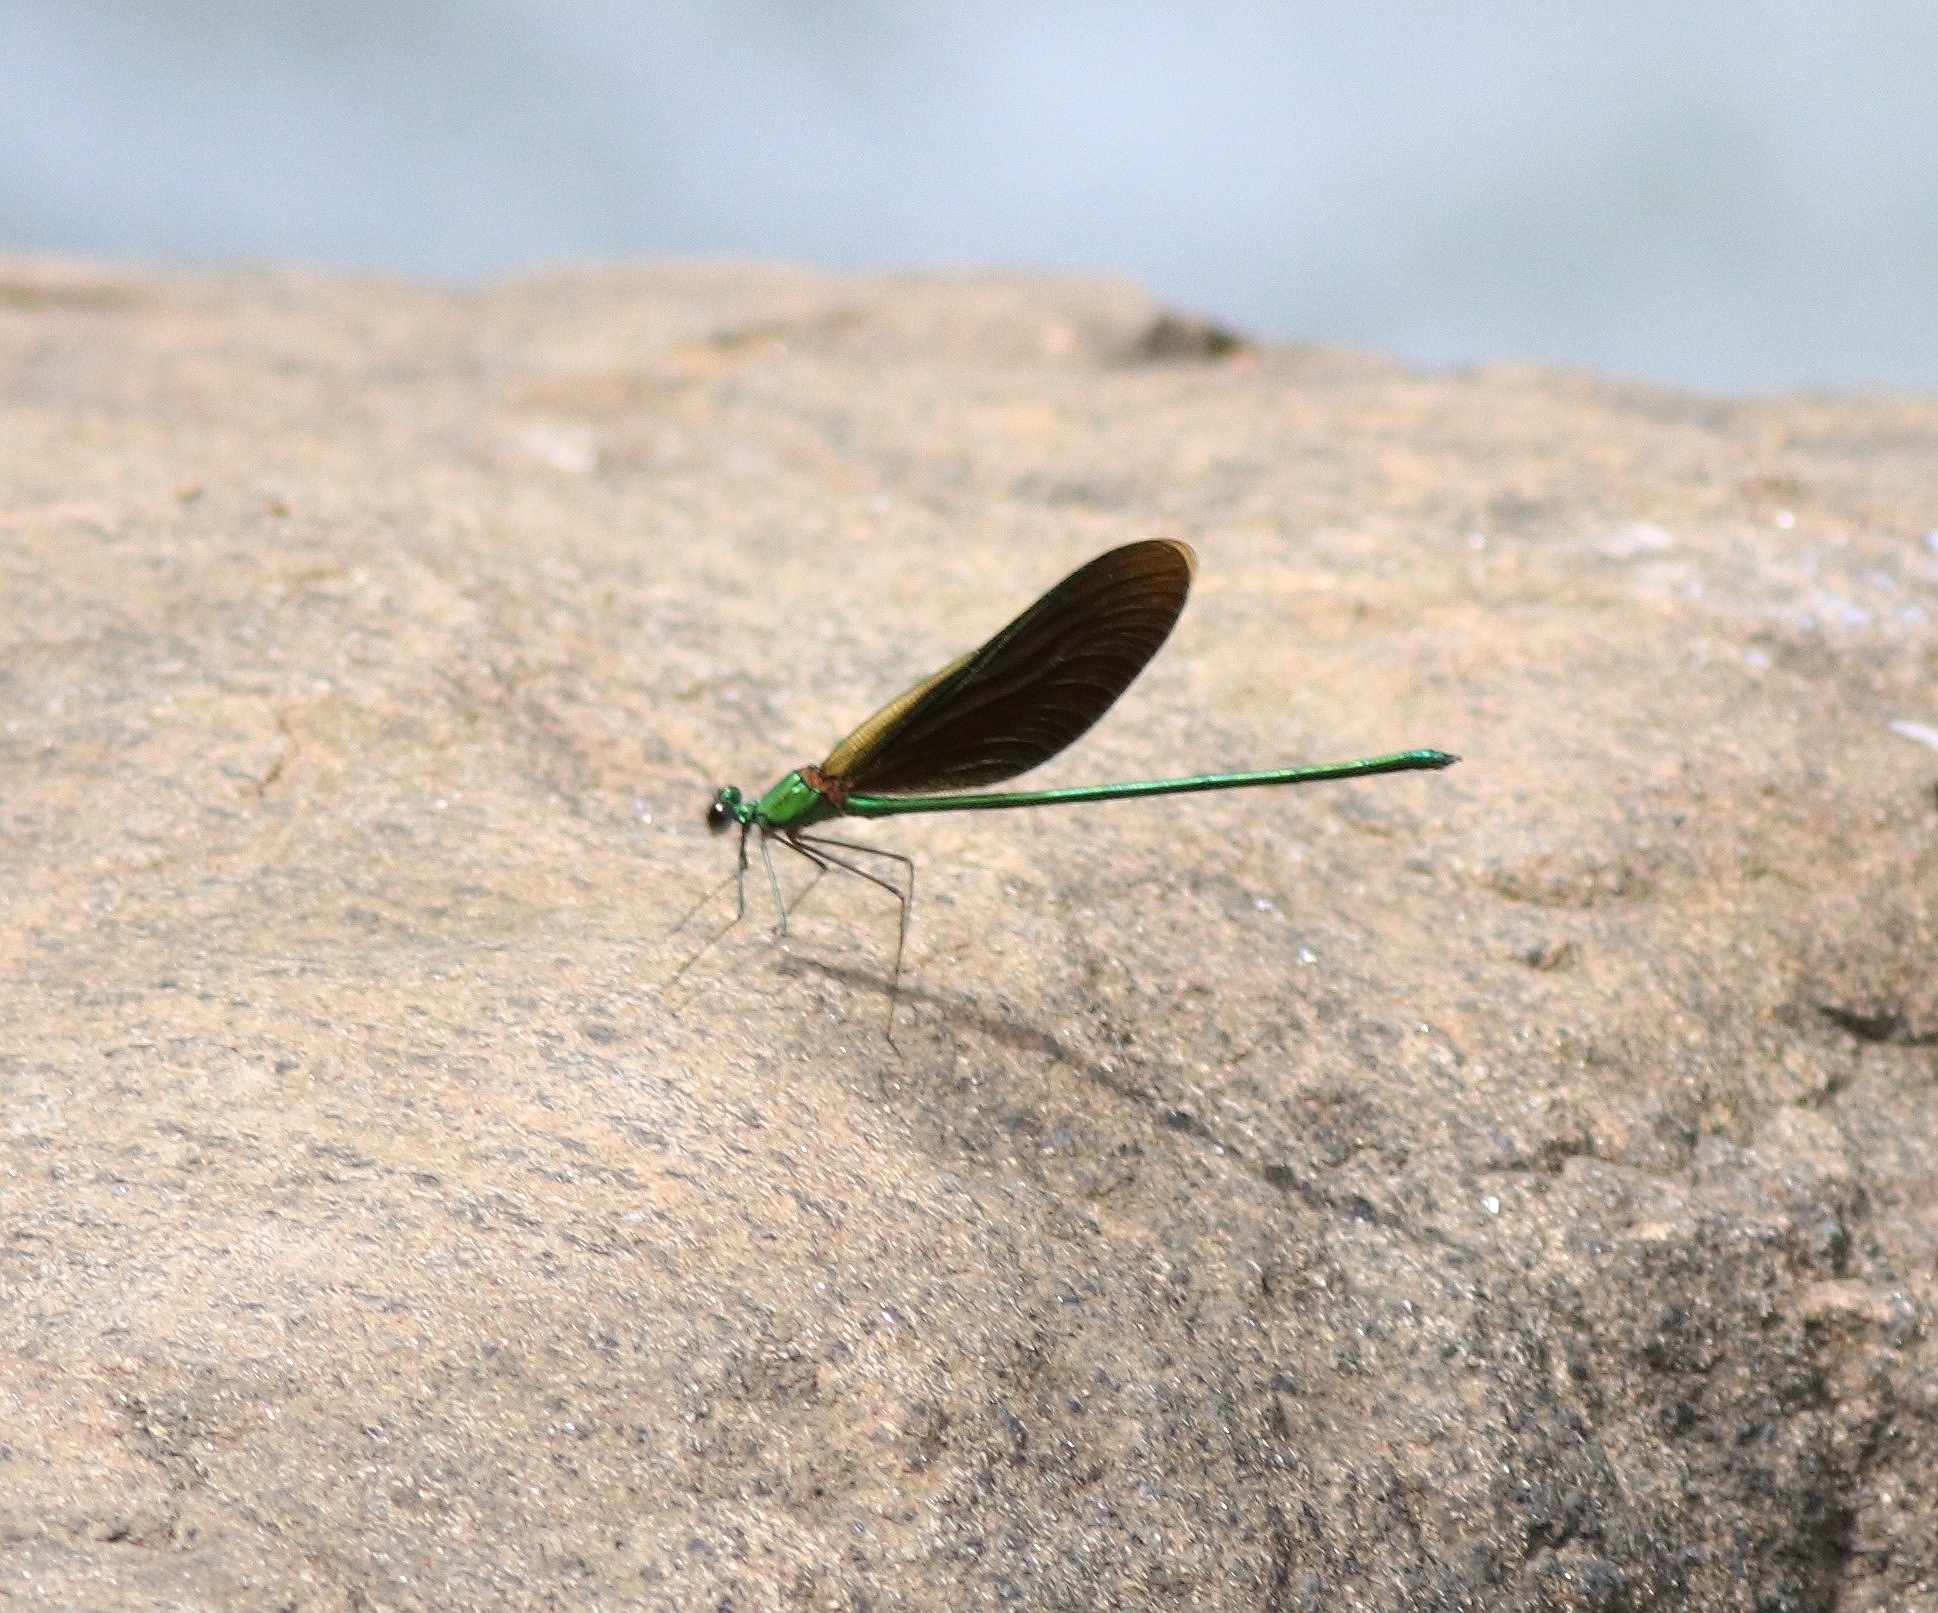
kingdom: Animalia
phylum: Arthropoda
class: Insecta
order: Odonata
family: Calopterygidae
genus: Neurobasis
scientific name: Neurobasis chinensis
